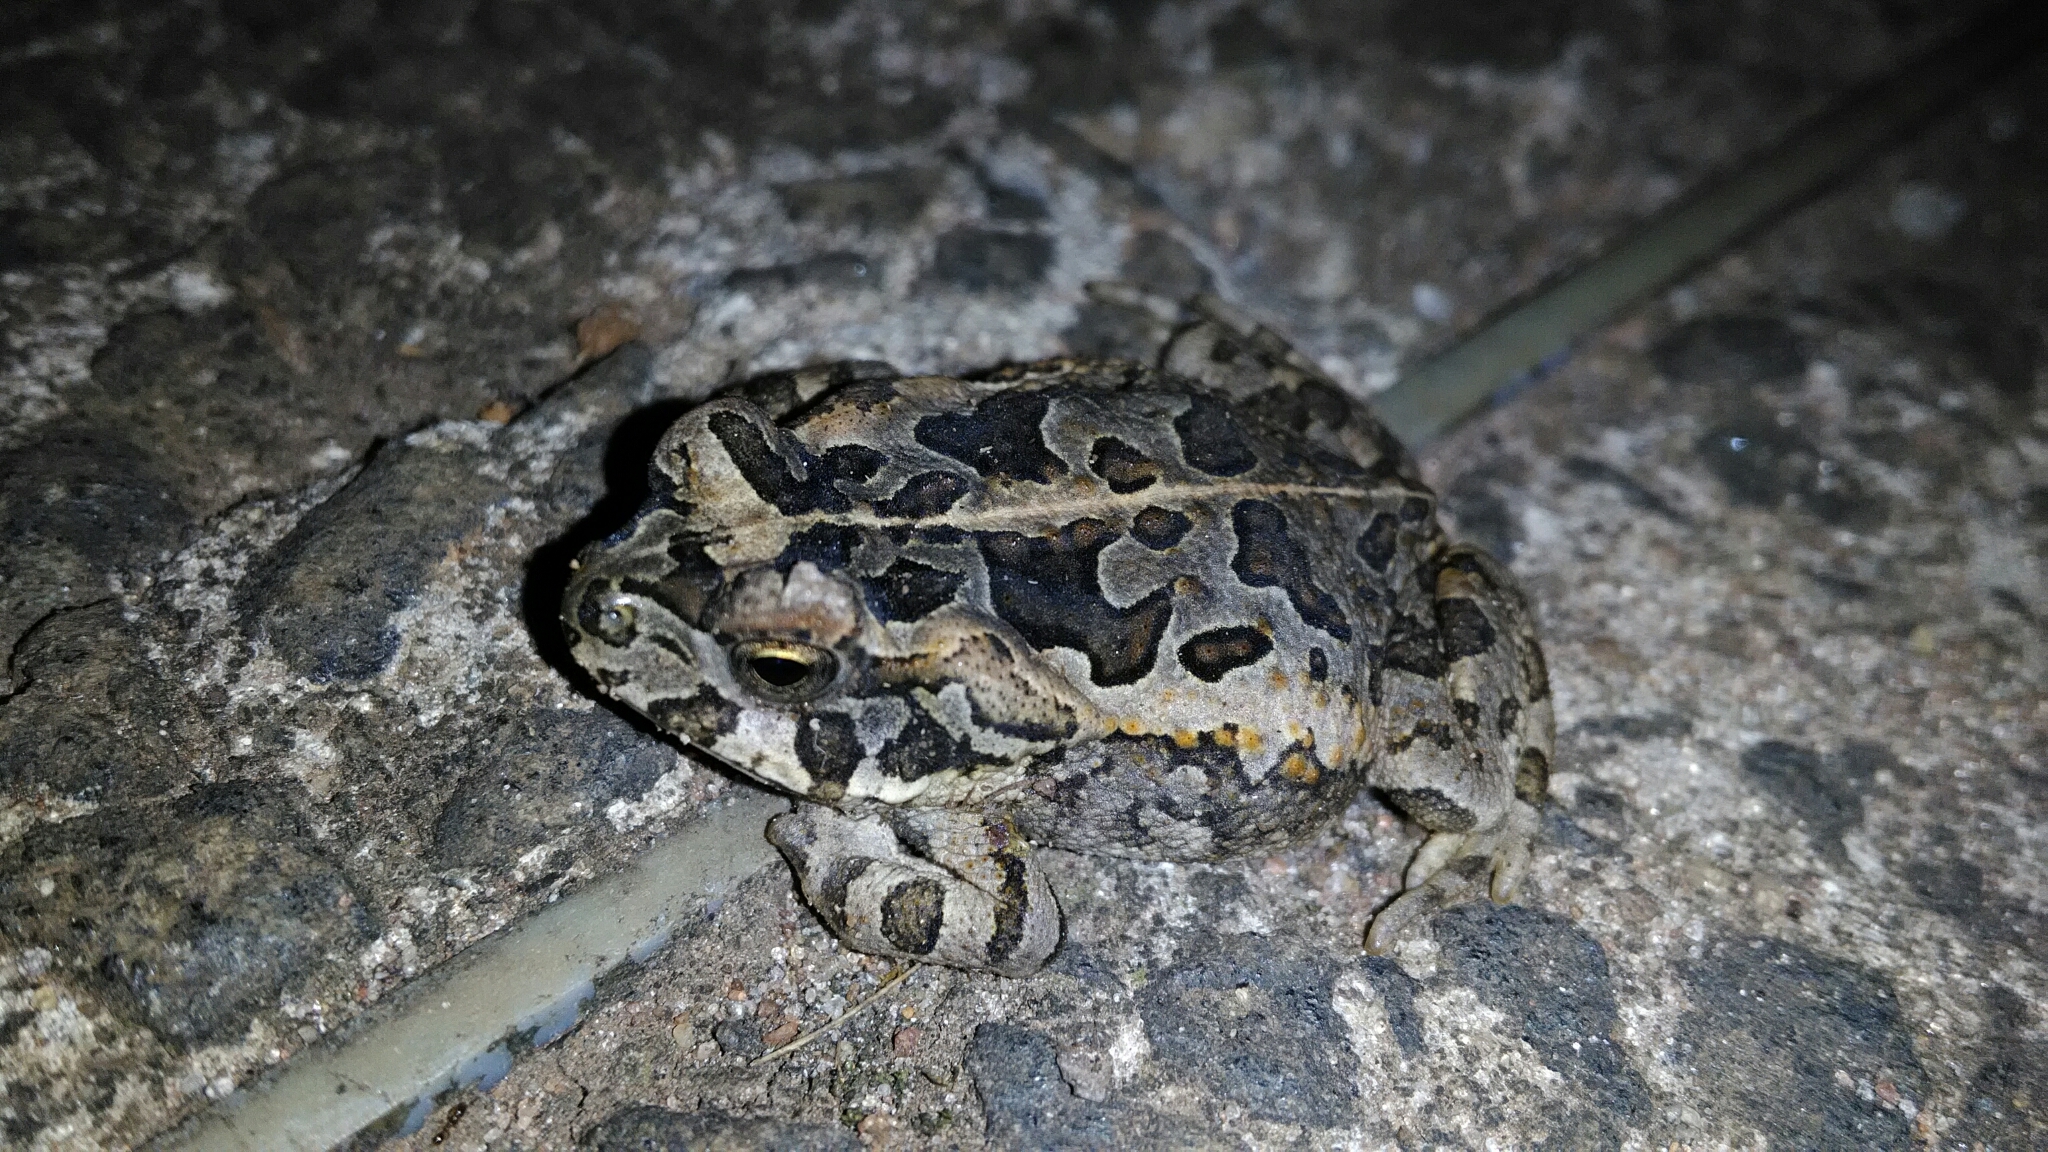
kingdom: Animalia
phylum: Chordata
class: Amphibia
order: Anura
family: Bufonidae
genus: Rhinella
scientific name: Rhinella diptycha
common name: Cope's toad
